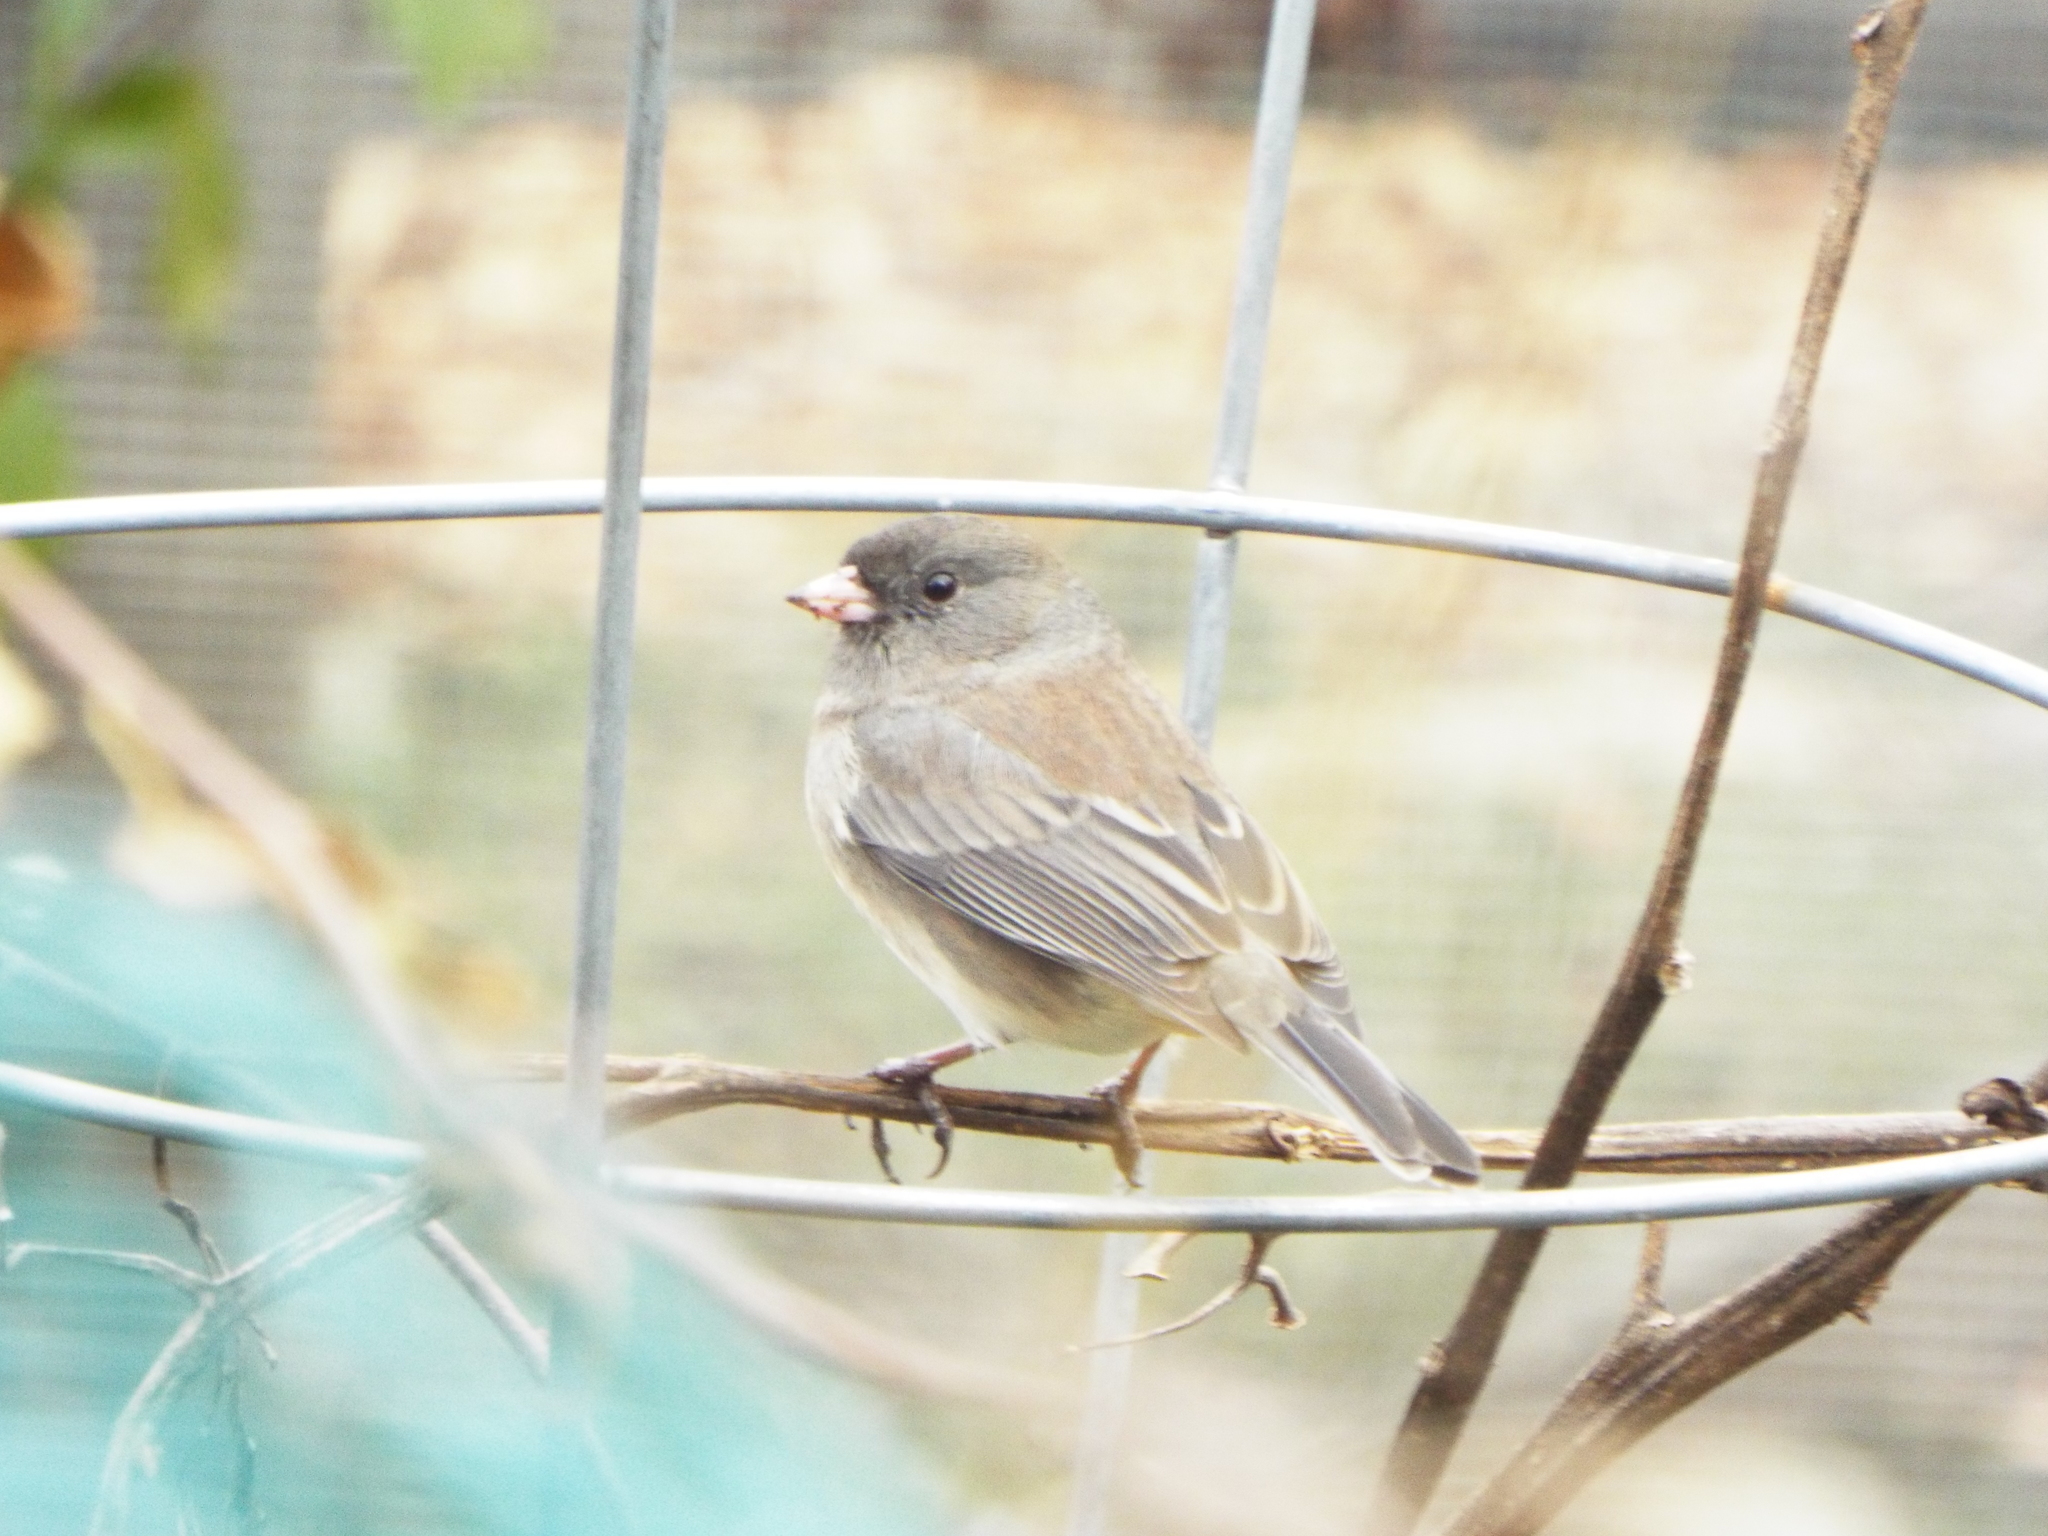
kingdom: Animalia
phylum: Chordata
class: Aves
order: Passeriformes
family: Passerellidae
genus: Junco
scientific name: Junco hyemalis
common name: Dark-eyed junco
